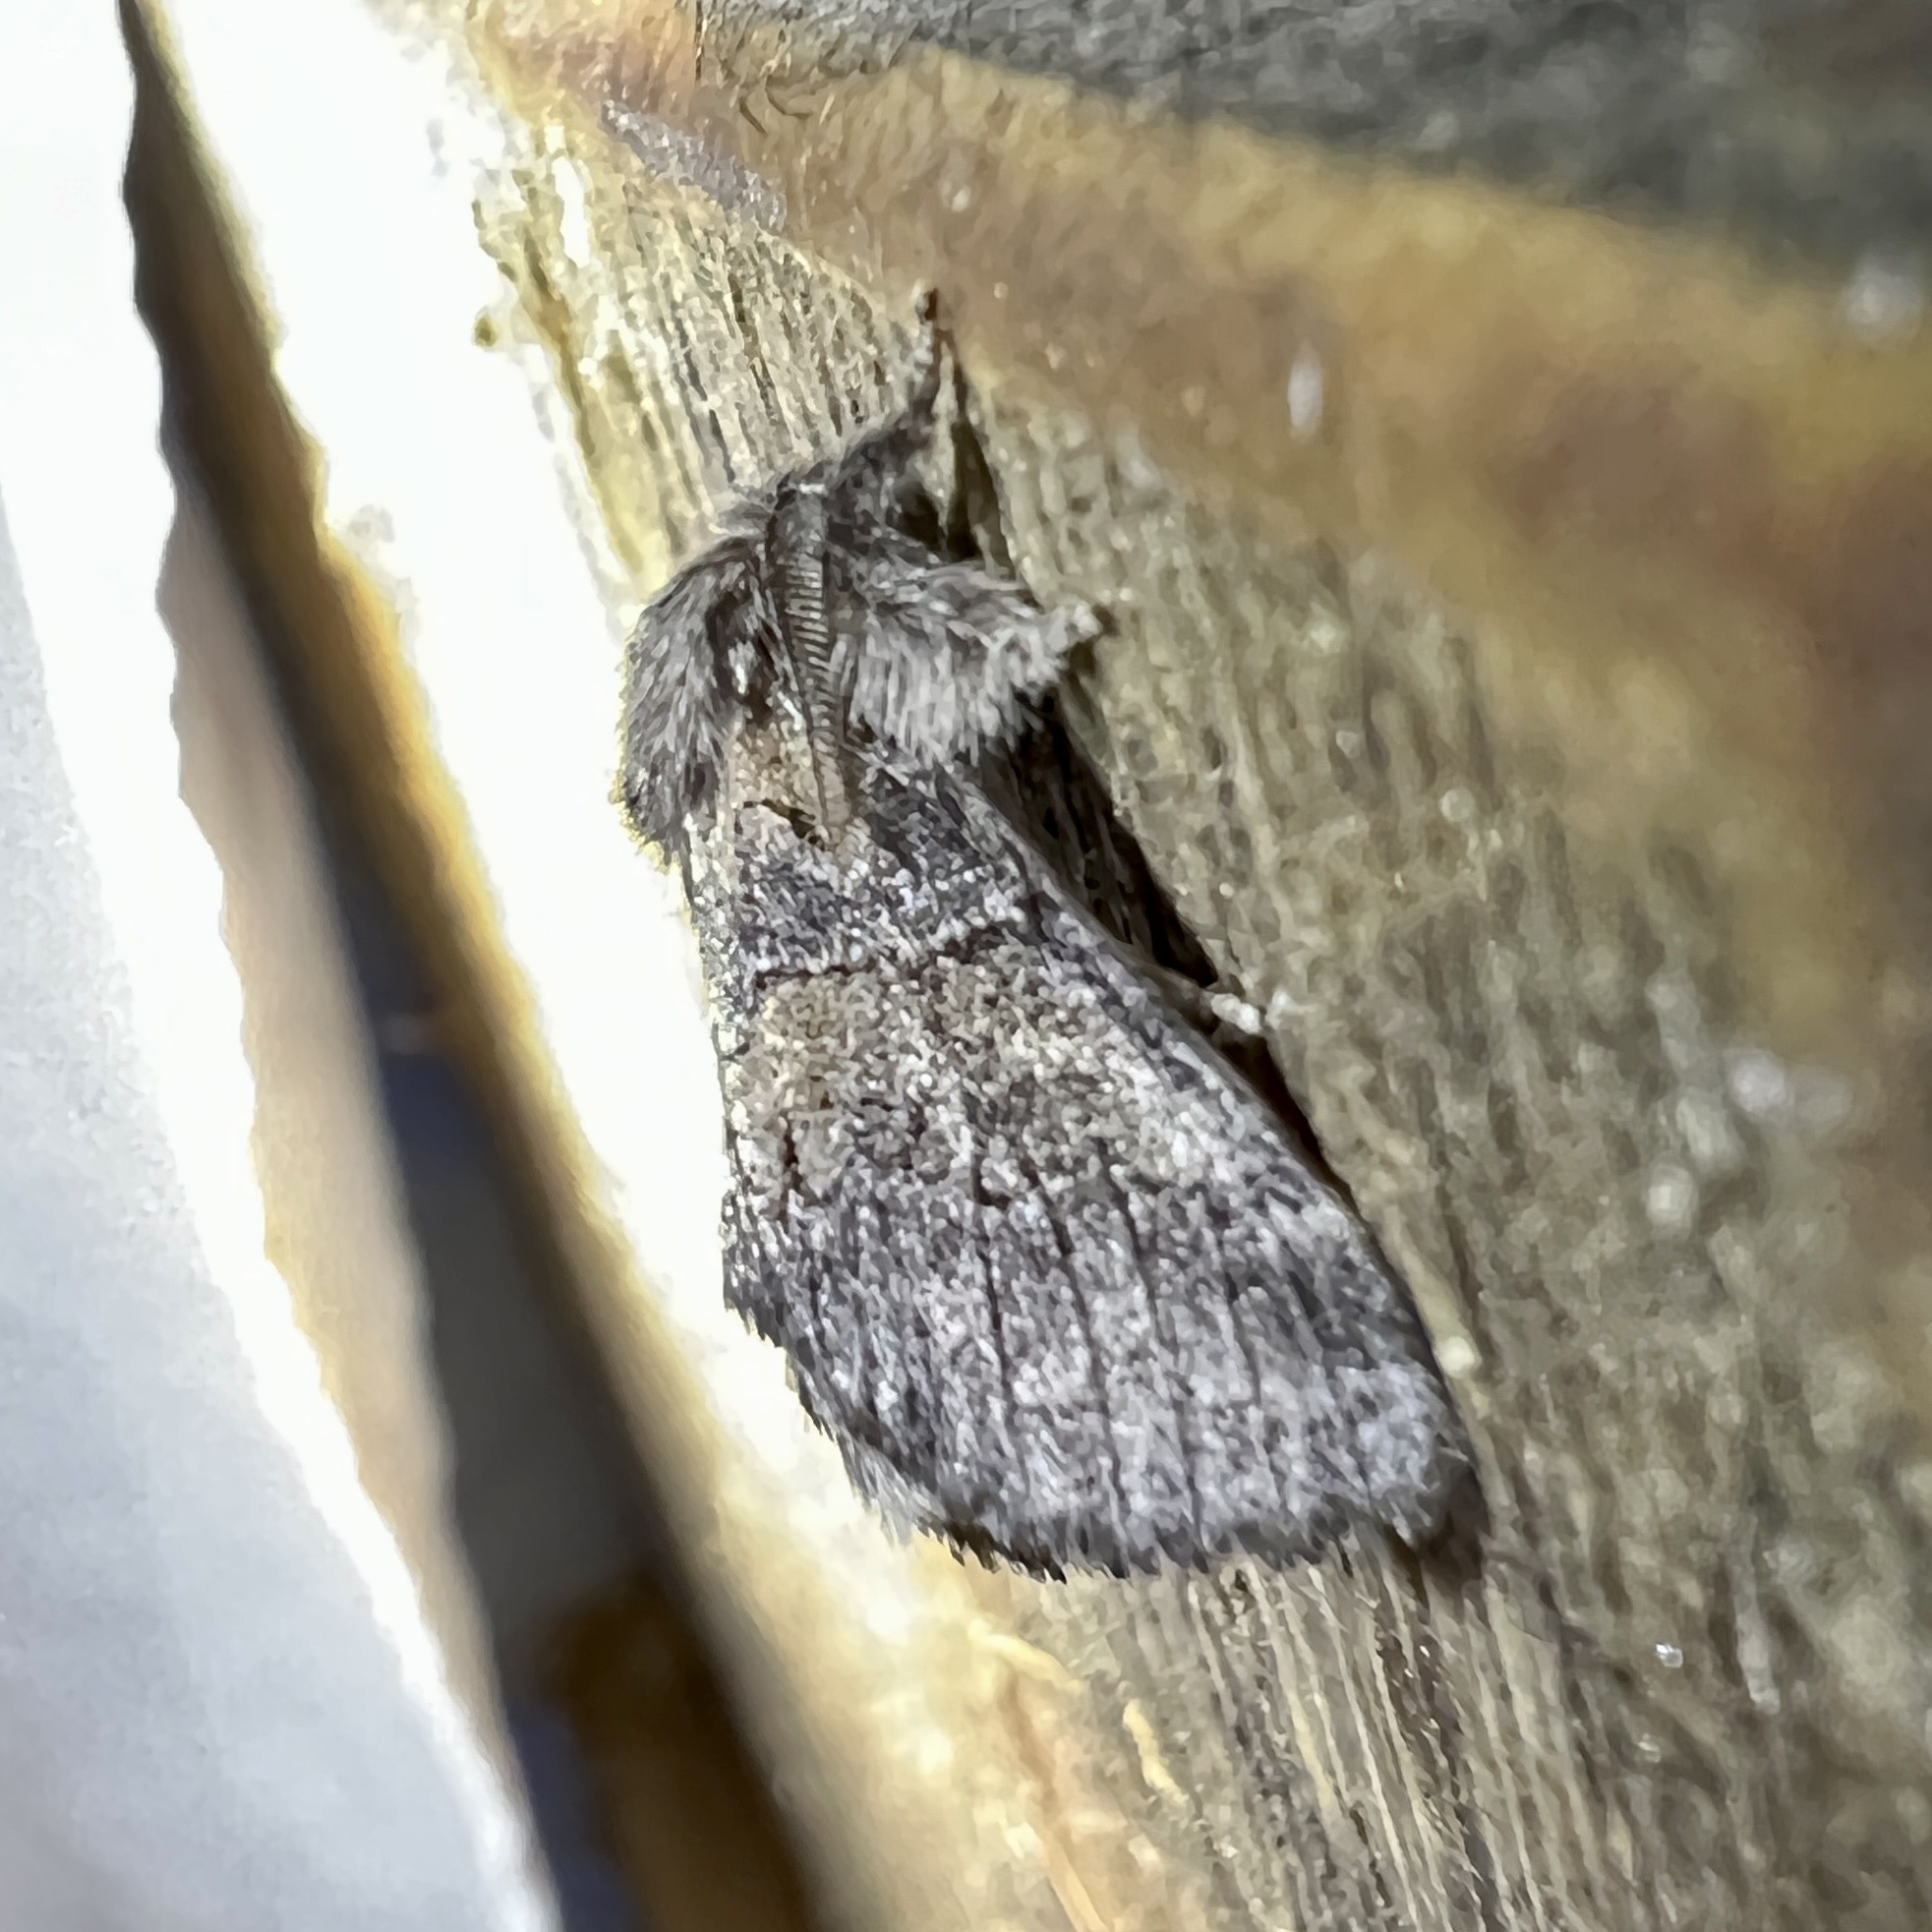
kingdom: Animalia
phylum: Arthropoda
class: Insecta
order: Lepidoptera
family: Notodontidae
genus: Gluphisia
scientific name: Gluphisia septentrionis
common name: Common gluphisia
